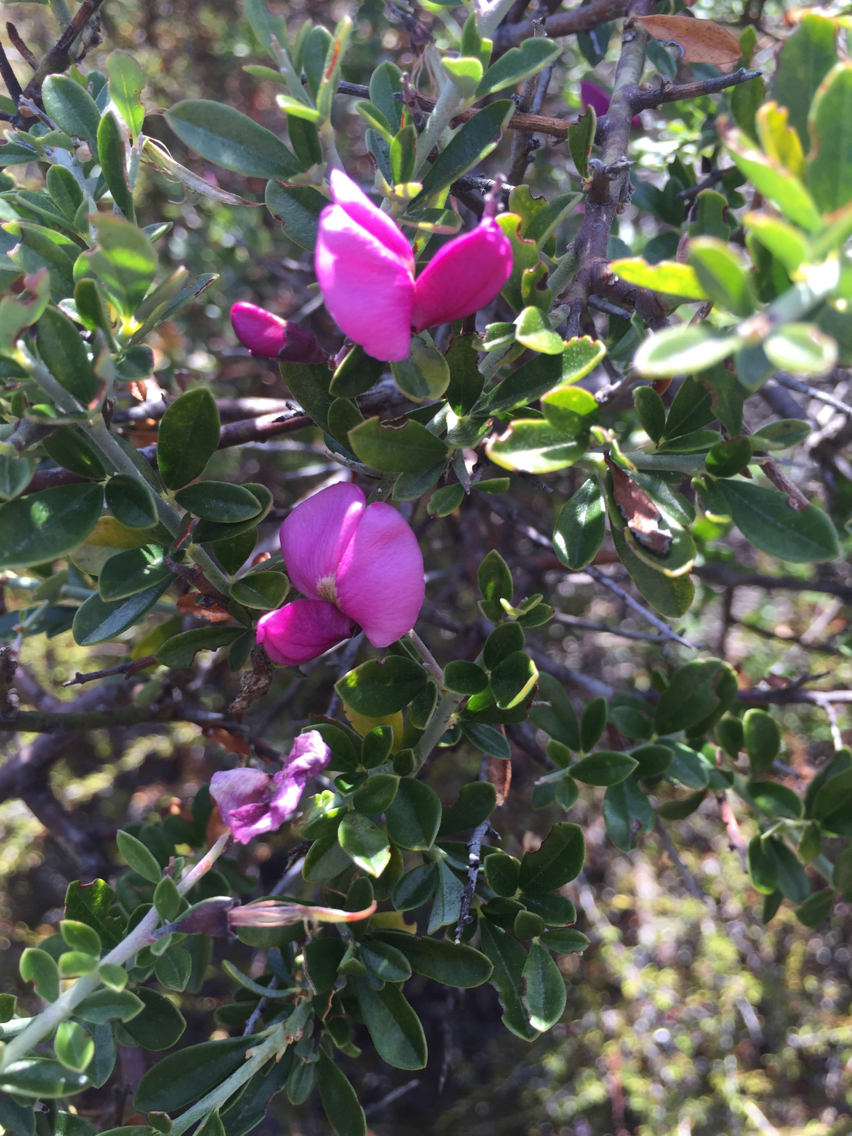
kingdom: Plantae
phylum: Tracheophyta
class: Magnoliopsida
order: Fabales
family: Fabaceae
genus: Pickeringia
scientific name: Pickeringia montana
